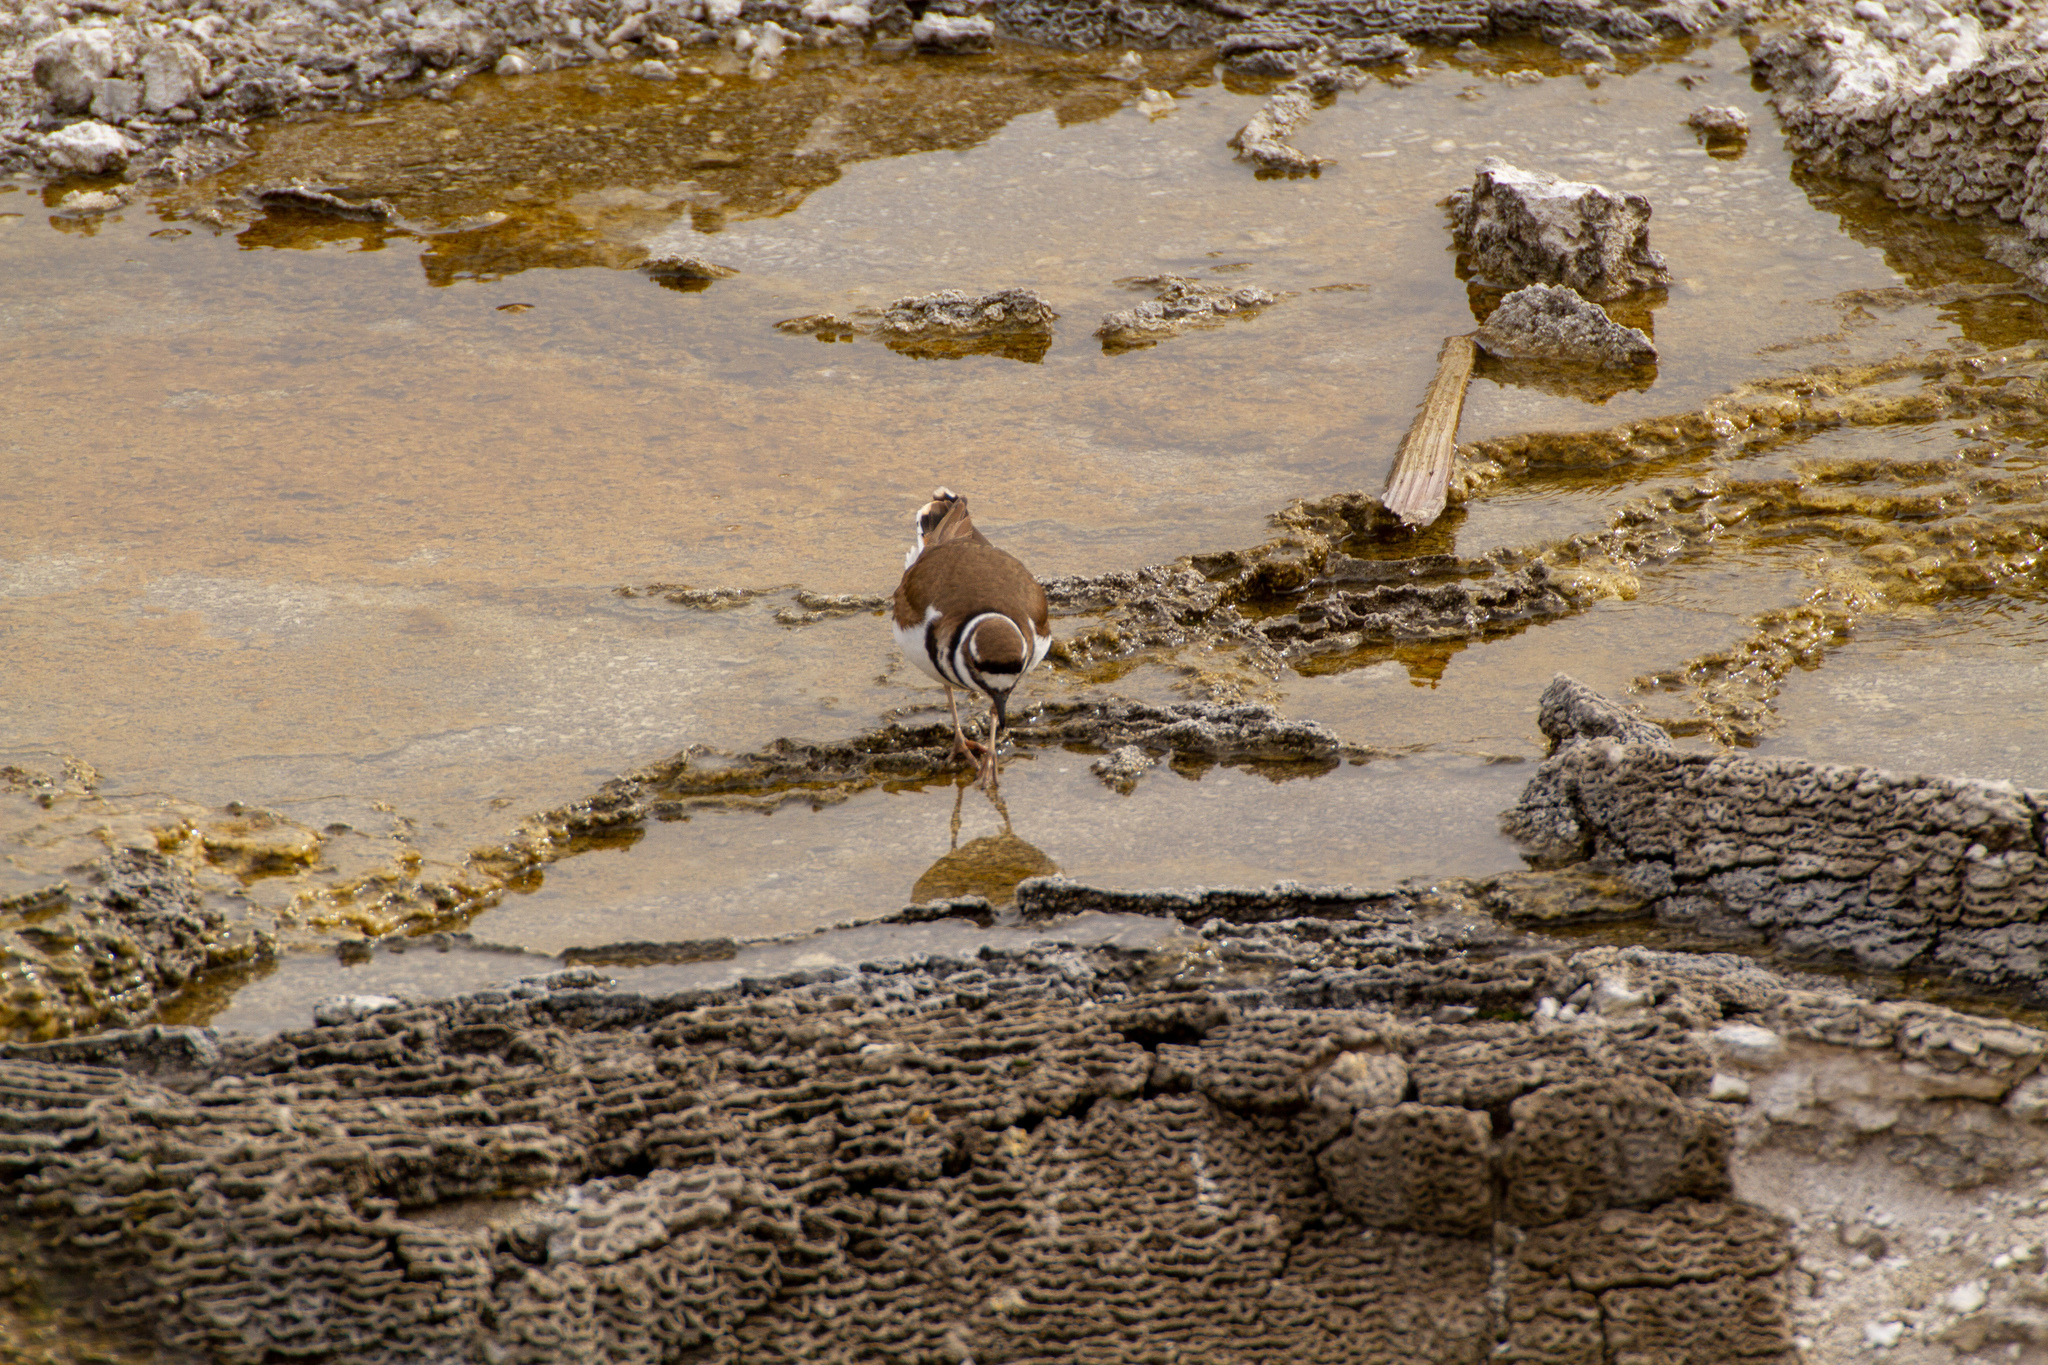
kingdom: Animalia
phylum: Chordata
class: Aves
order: Charadriiformes
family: Charadriidae
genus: Charadrius
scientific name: Charadrius vociferus
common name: Killdeer
